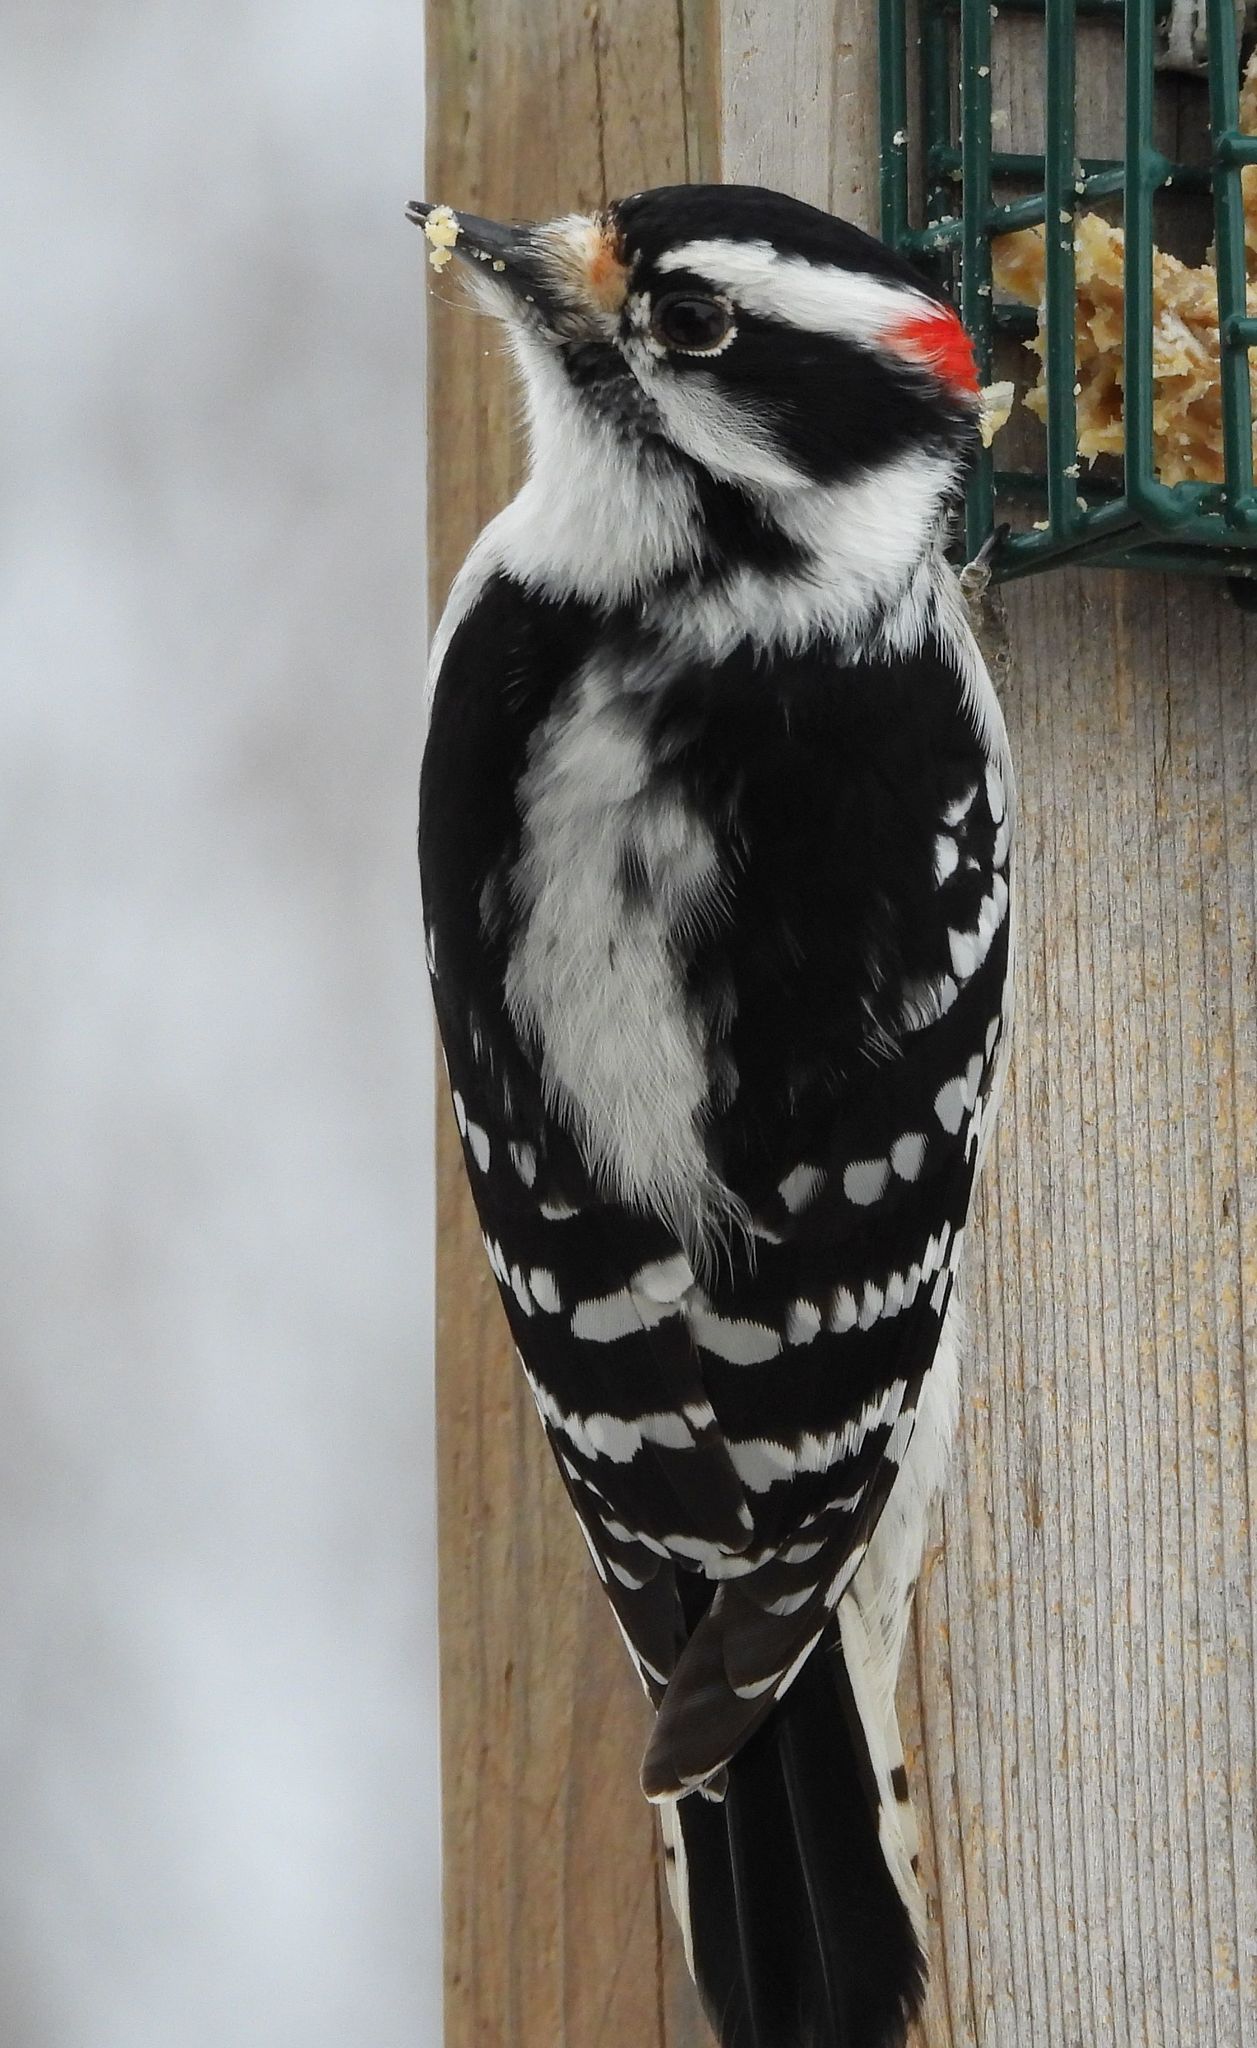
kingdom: Animalia
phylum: Chordata
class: Aves
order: Piciformes
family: Picidae
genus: Dryobates
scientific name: Dryobates pubescens
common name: Downy woodpecker
